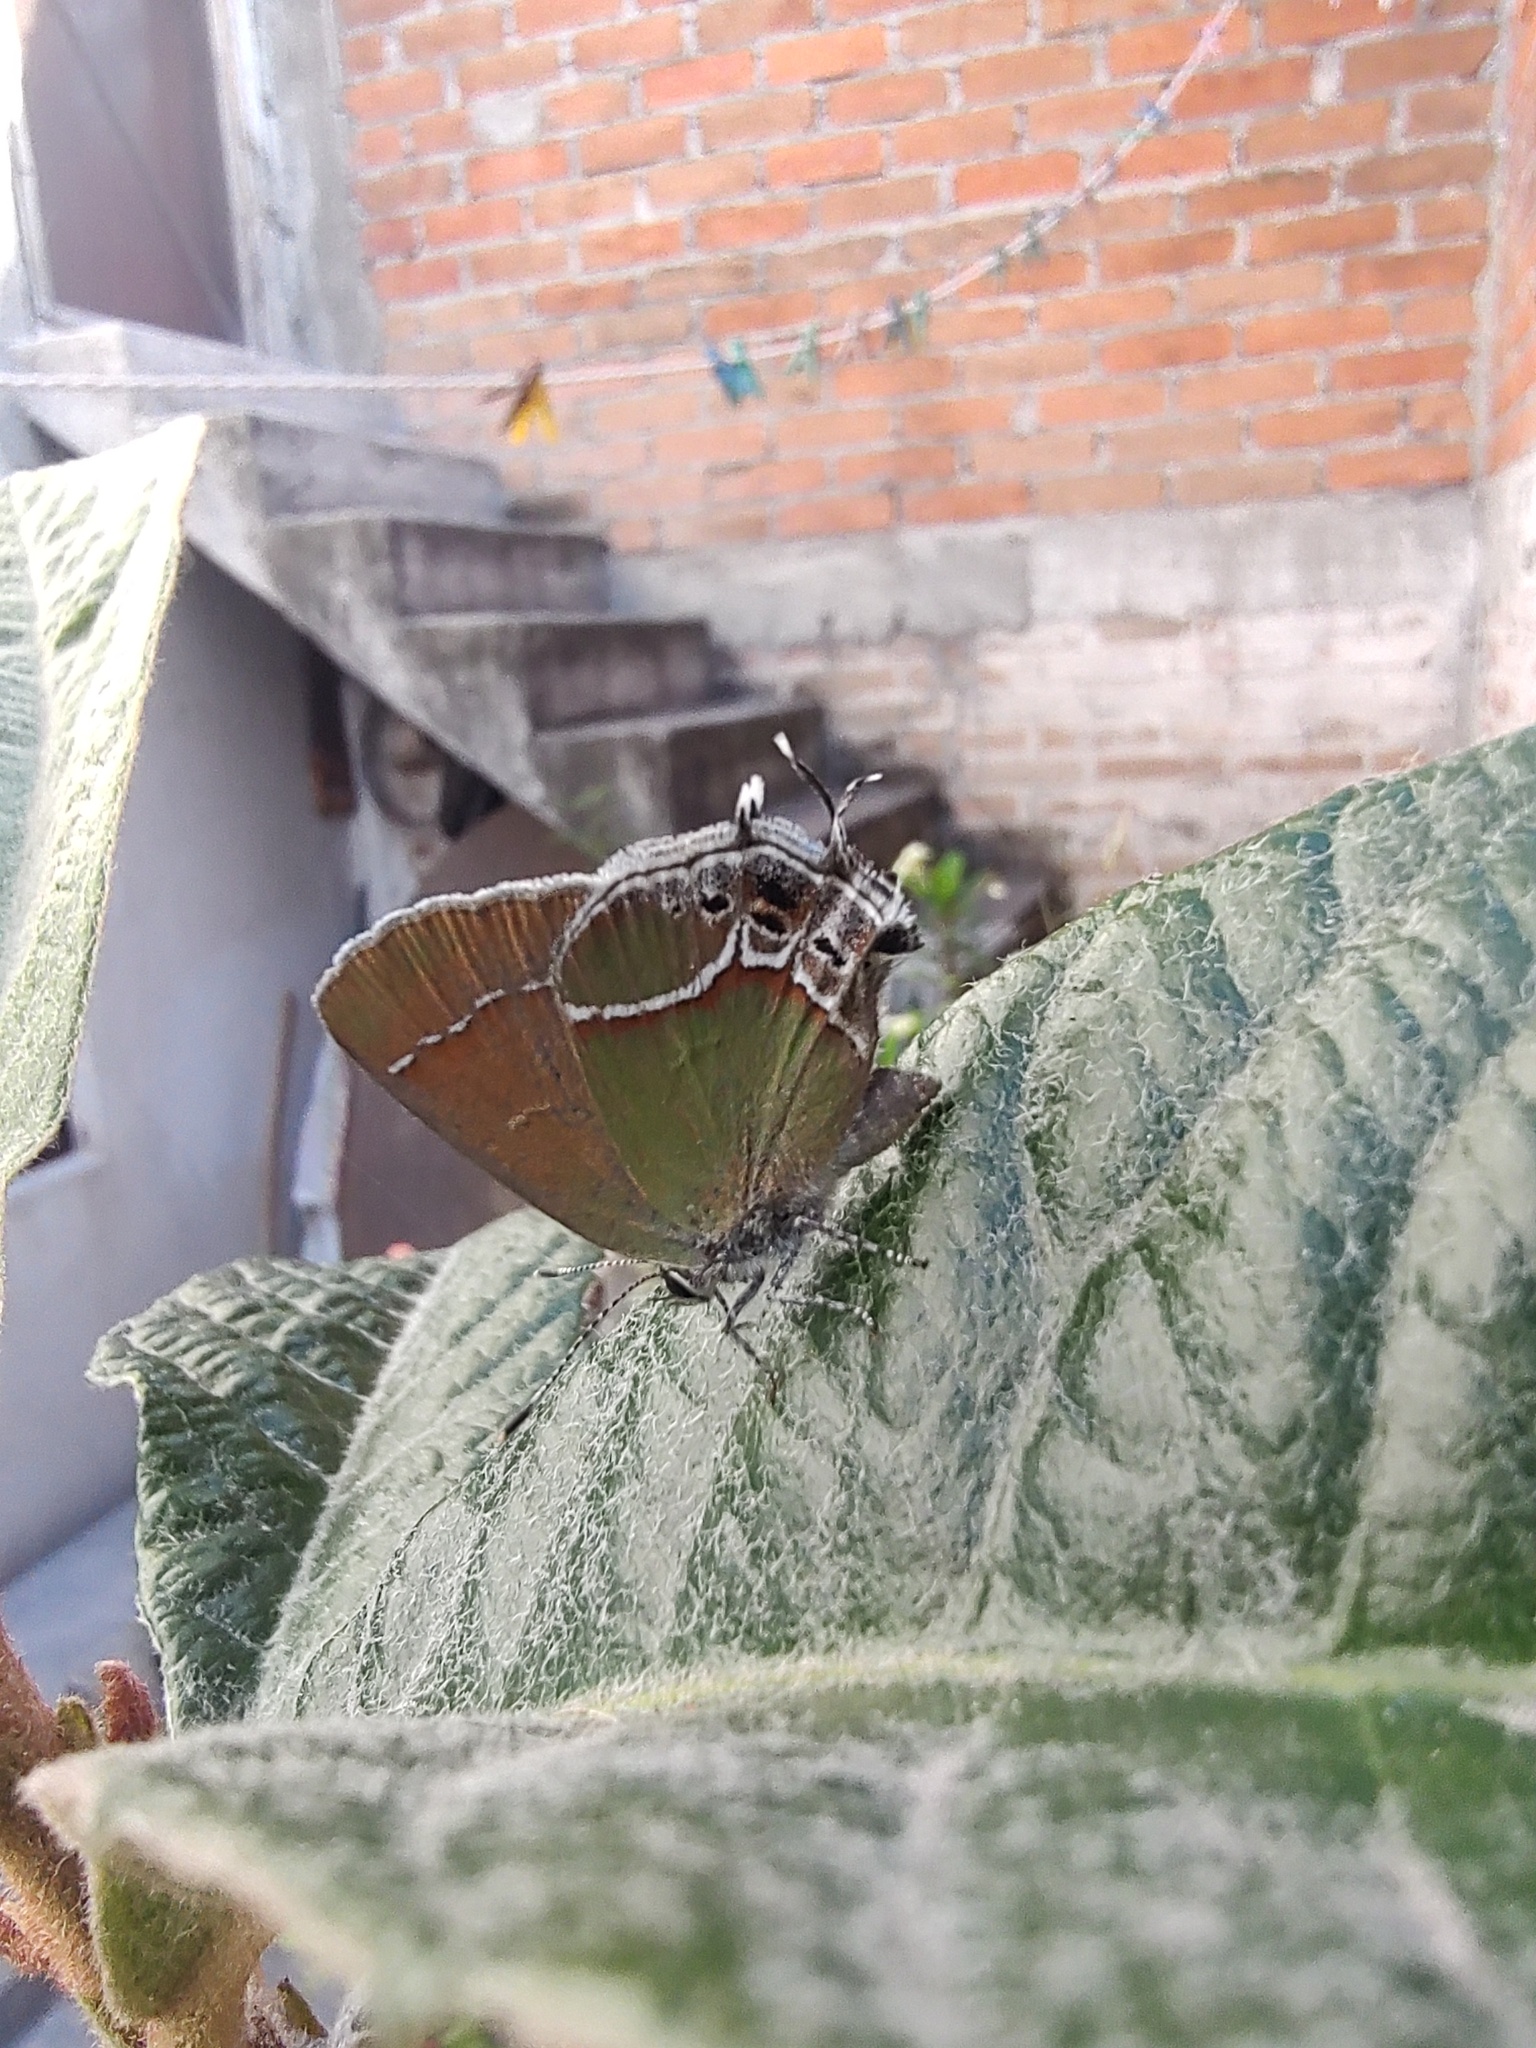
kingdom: Animalia
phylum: Arthropoda
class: Insecta
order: Lepidoptera
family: Lycaenidae
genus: Xamia
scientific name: Xamia xami
